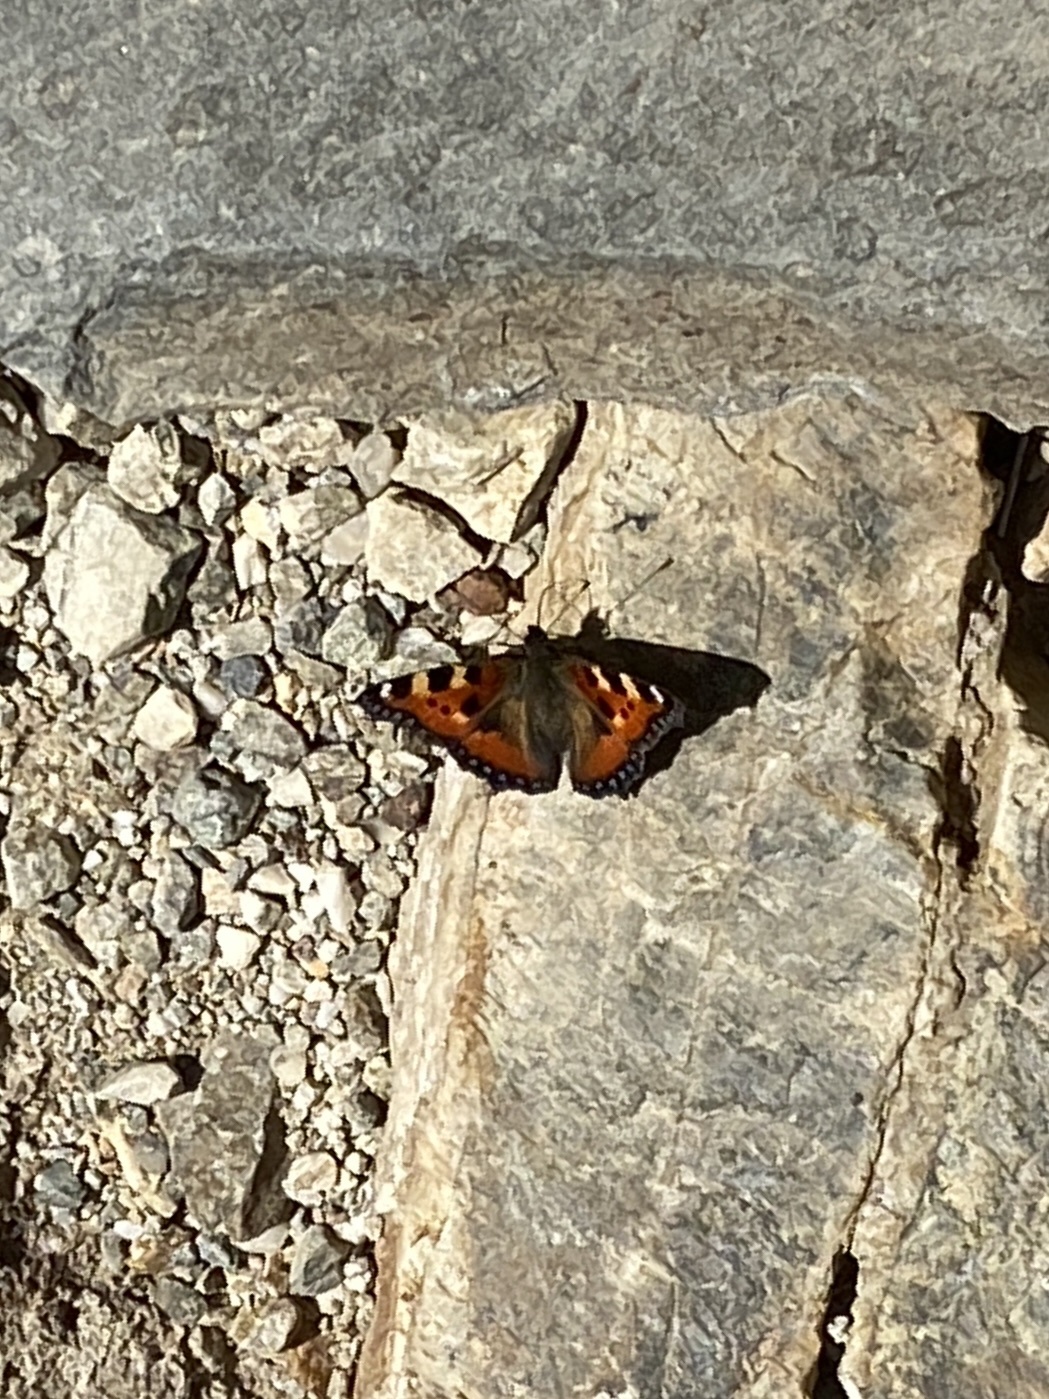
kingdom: Animalia
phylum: Arthropoda
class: Insecta
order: Lepidoptera
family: Nymphalidae
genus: Aglais
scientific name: Aglais urticae
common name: Small tortoiseshell
